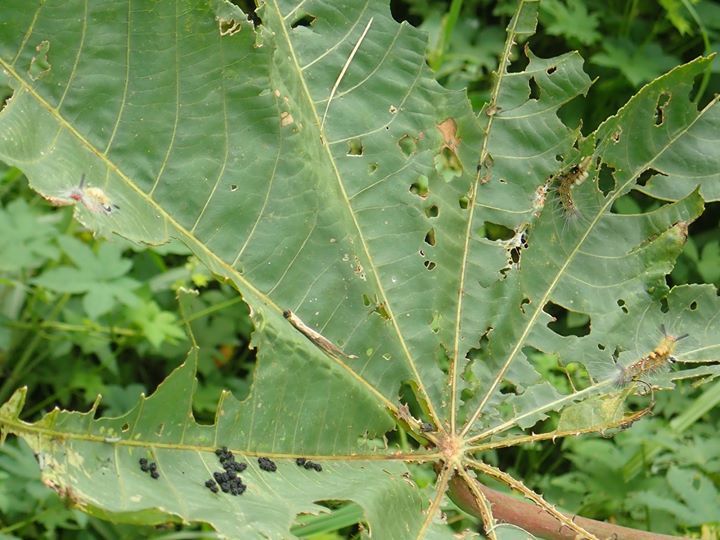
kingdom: Plantae
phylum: Tracheophyta
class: Magnoliopsida
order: Malpighiales
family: Euphorbiaceae
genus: Ricinus
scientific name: Ricinus communis
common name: Castor-oil-plant
